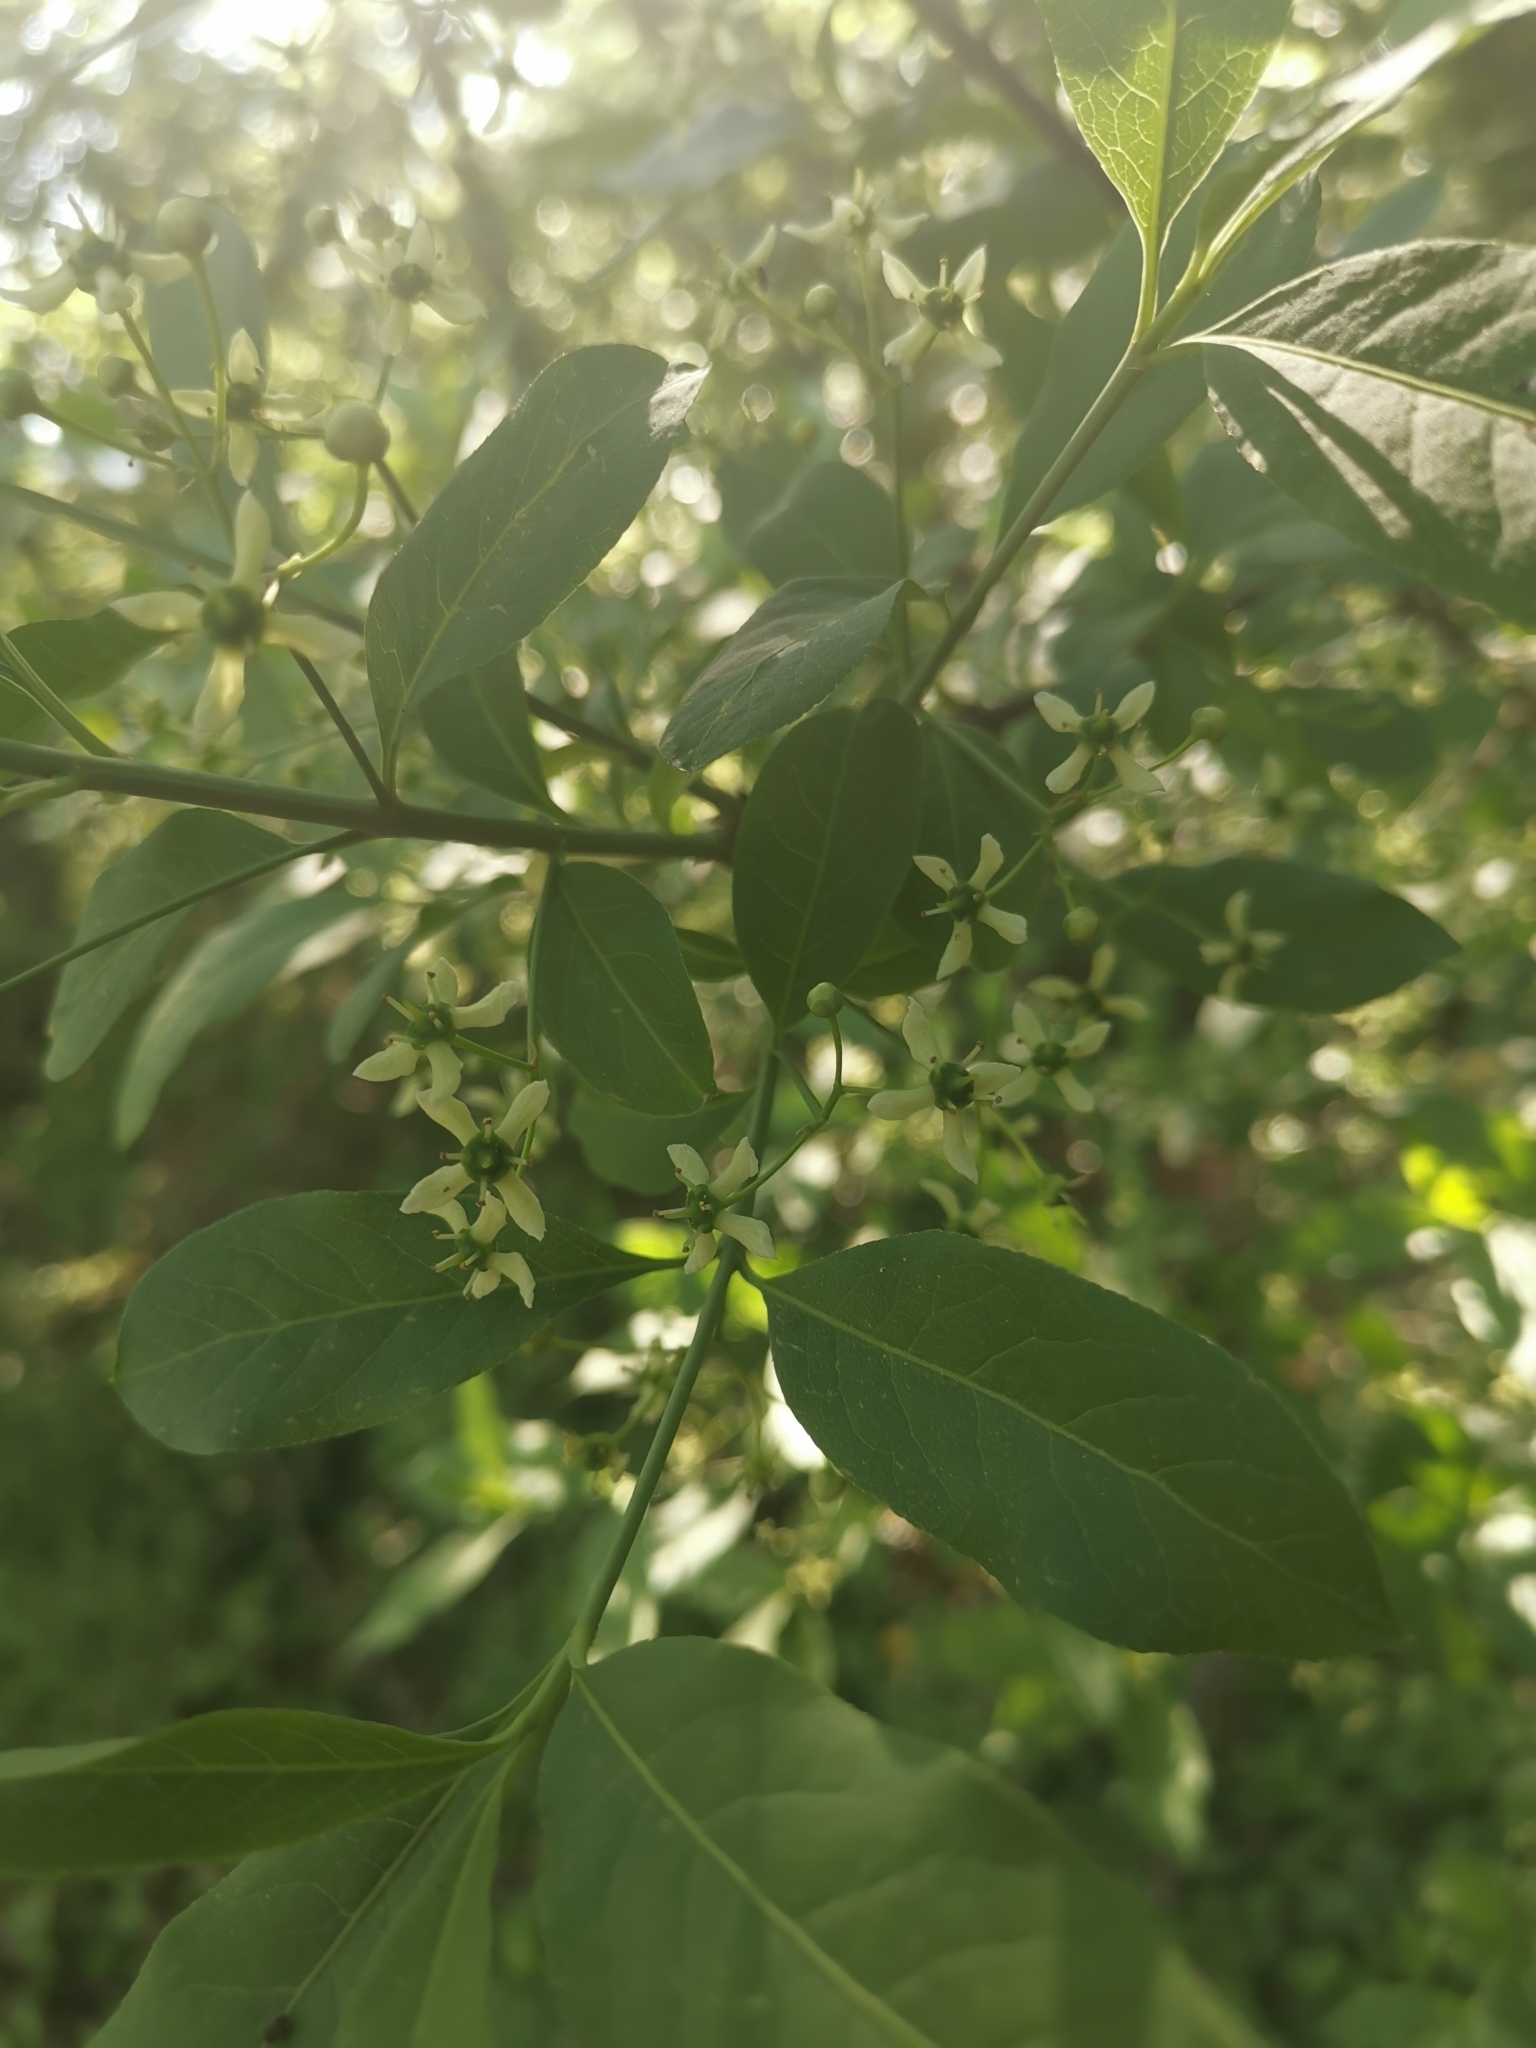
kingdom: Plantae
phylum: Tracheophyta
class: Magnoliopsida
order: Celastrales
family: Celastraceae
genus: Euonymus
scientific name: Euonymus europaeus
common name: Spindle
